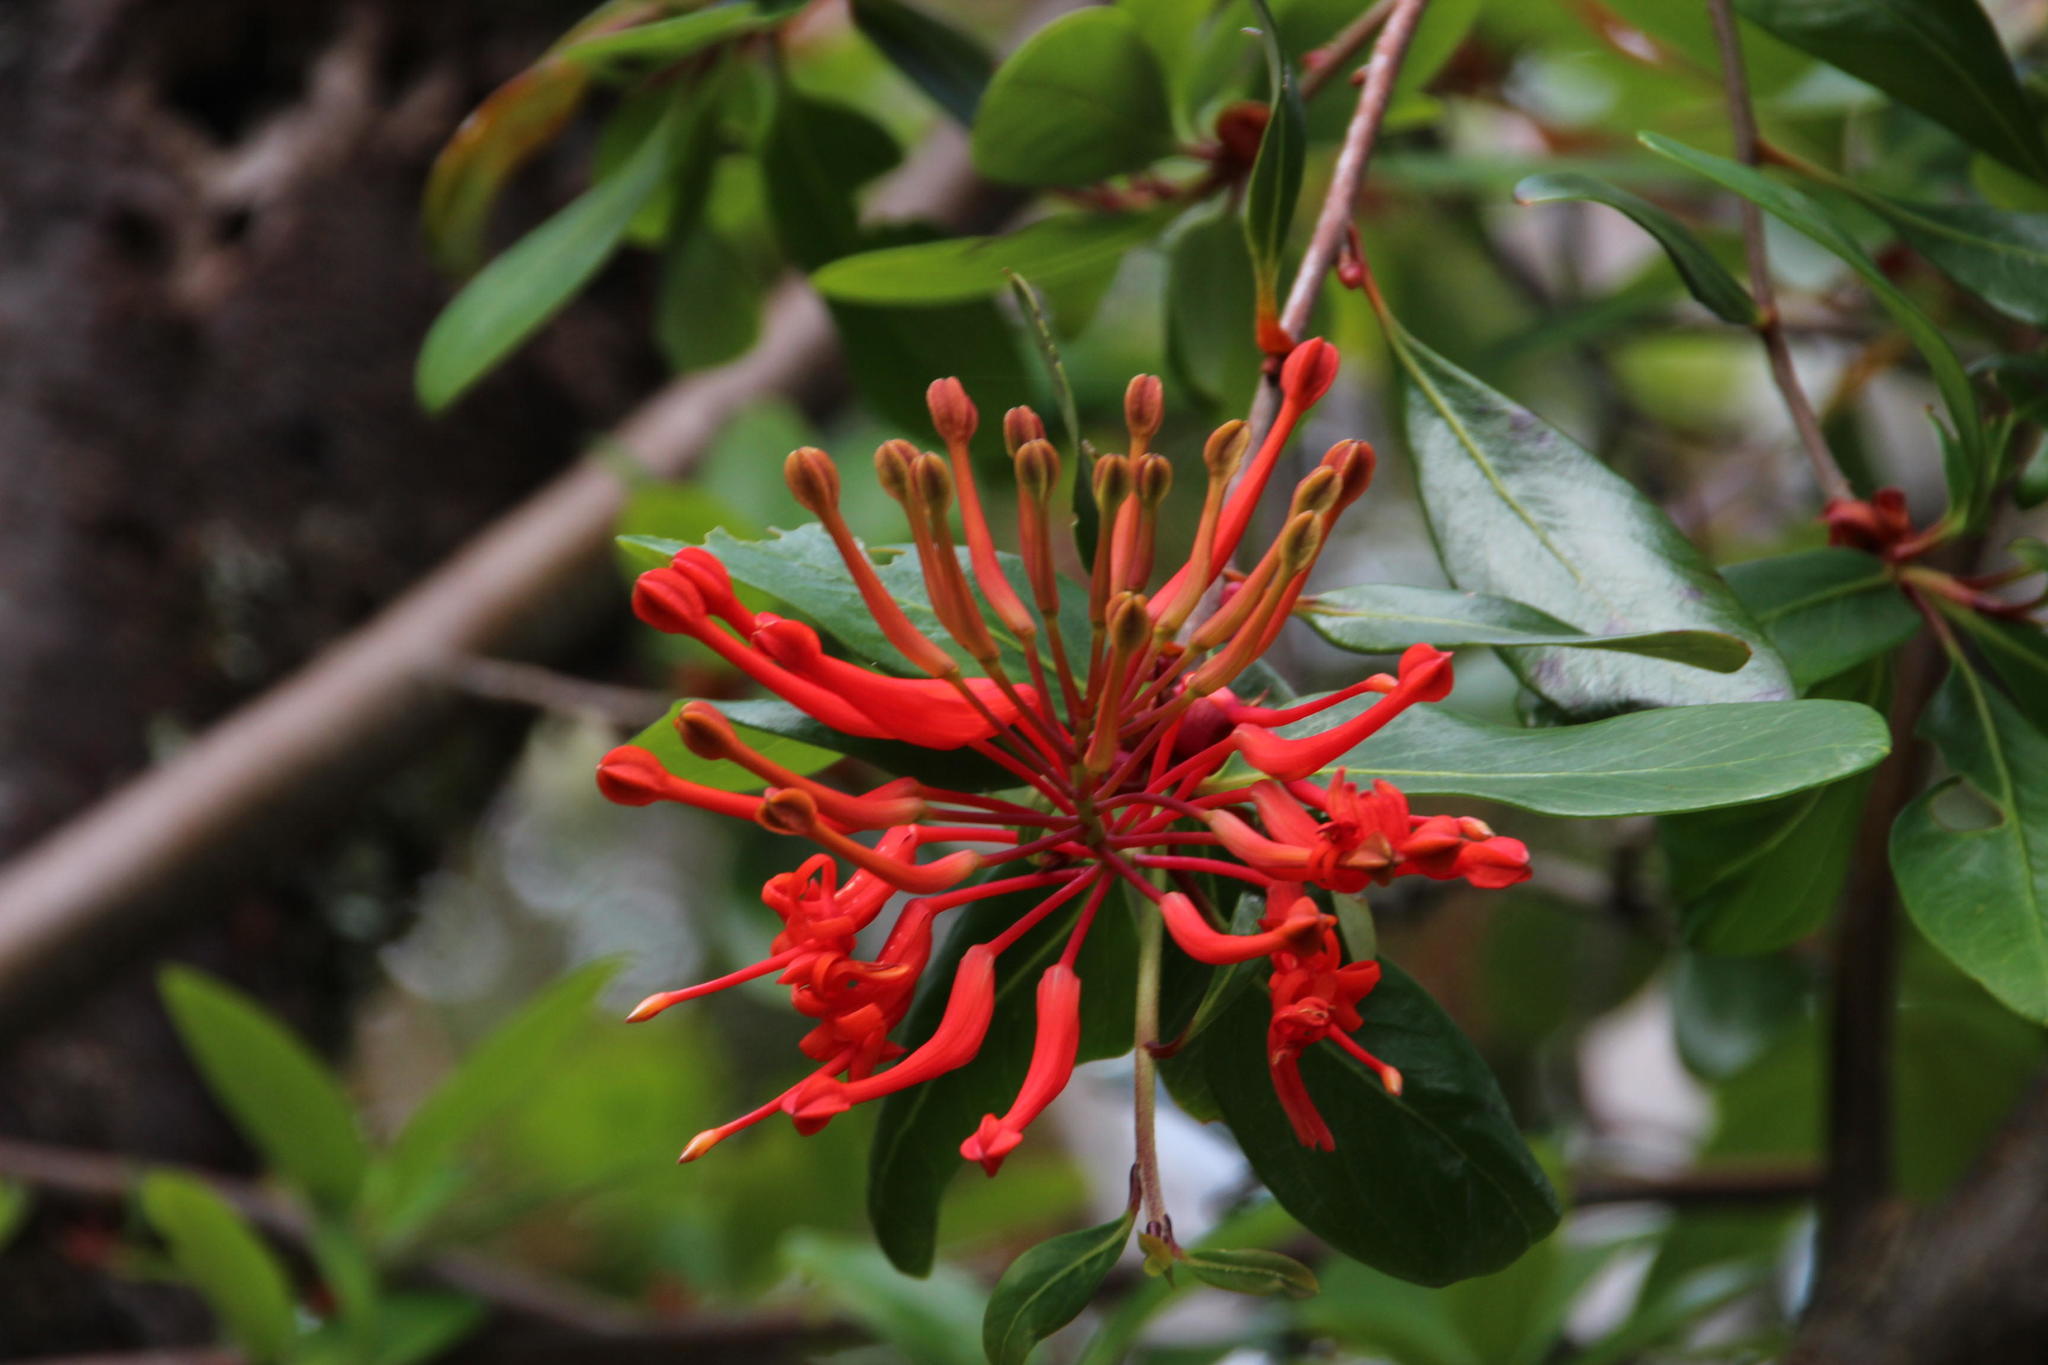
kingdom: Plantae
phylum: Tracheophyta
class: Magnoliopsida
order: Proteales
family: Proteaceae
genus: Embothrium
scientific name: Embothrium coccineum
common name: Chilean firebush
